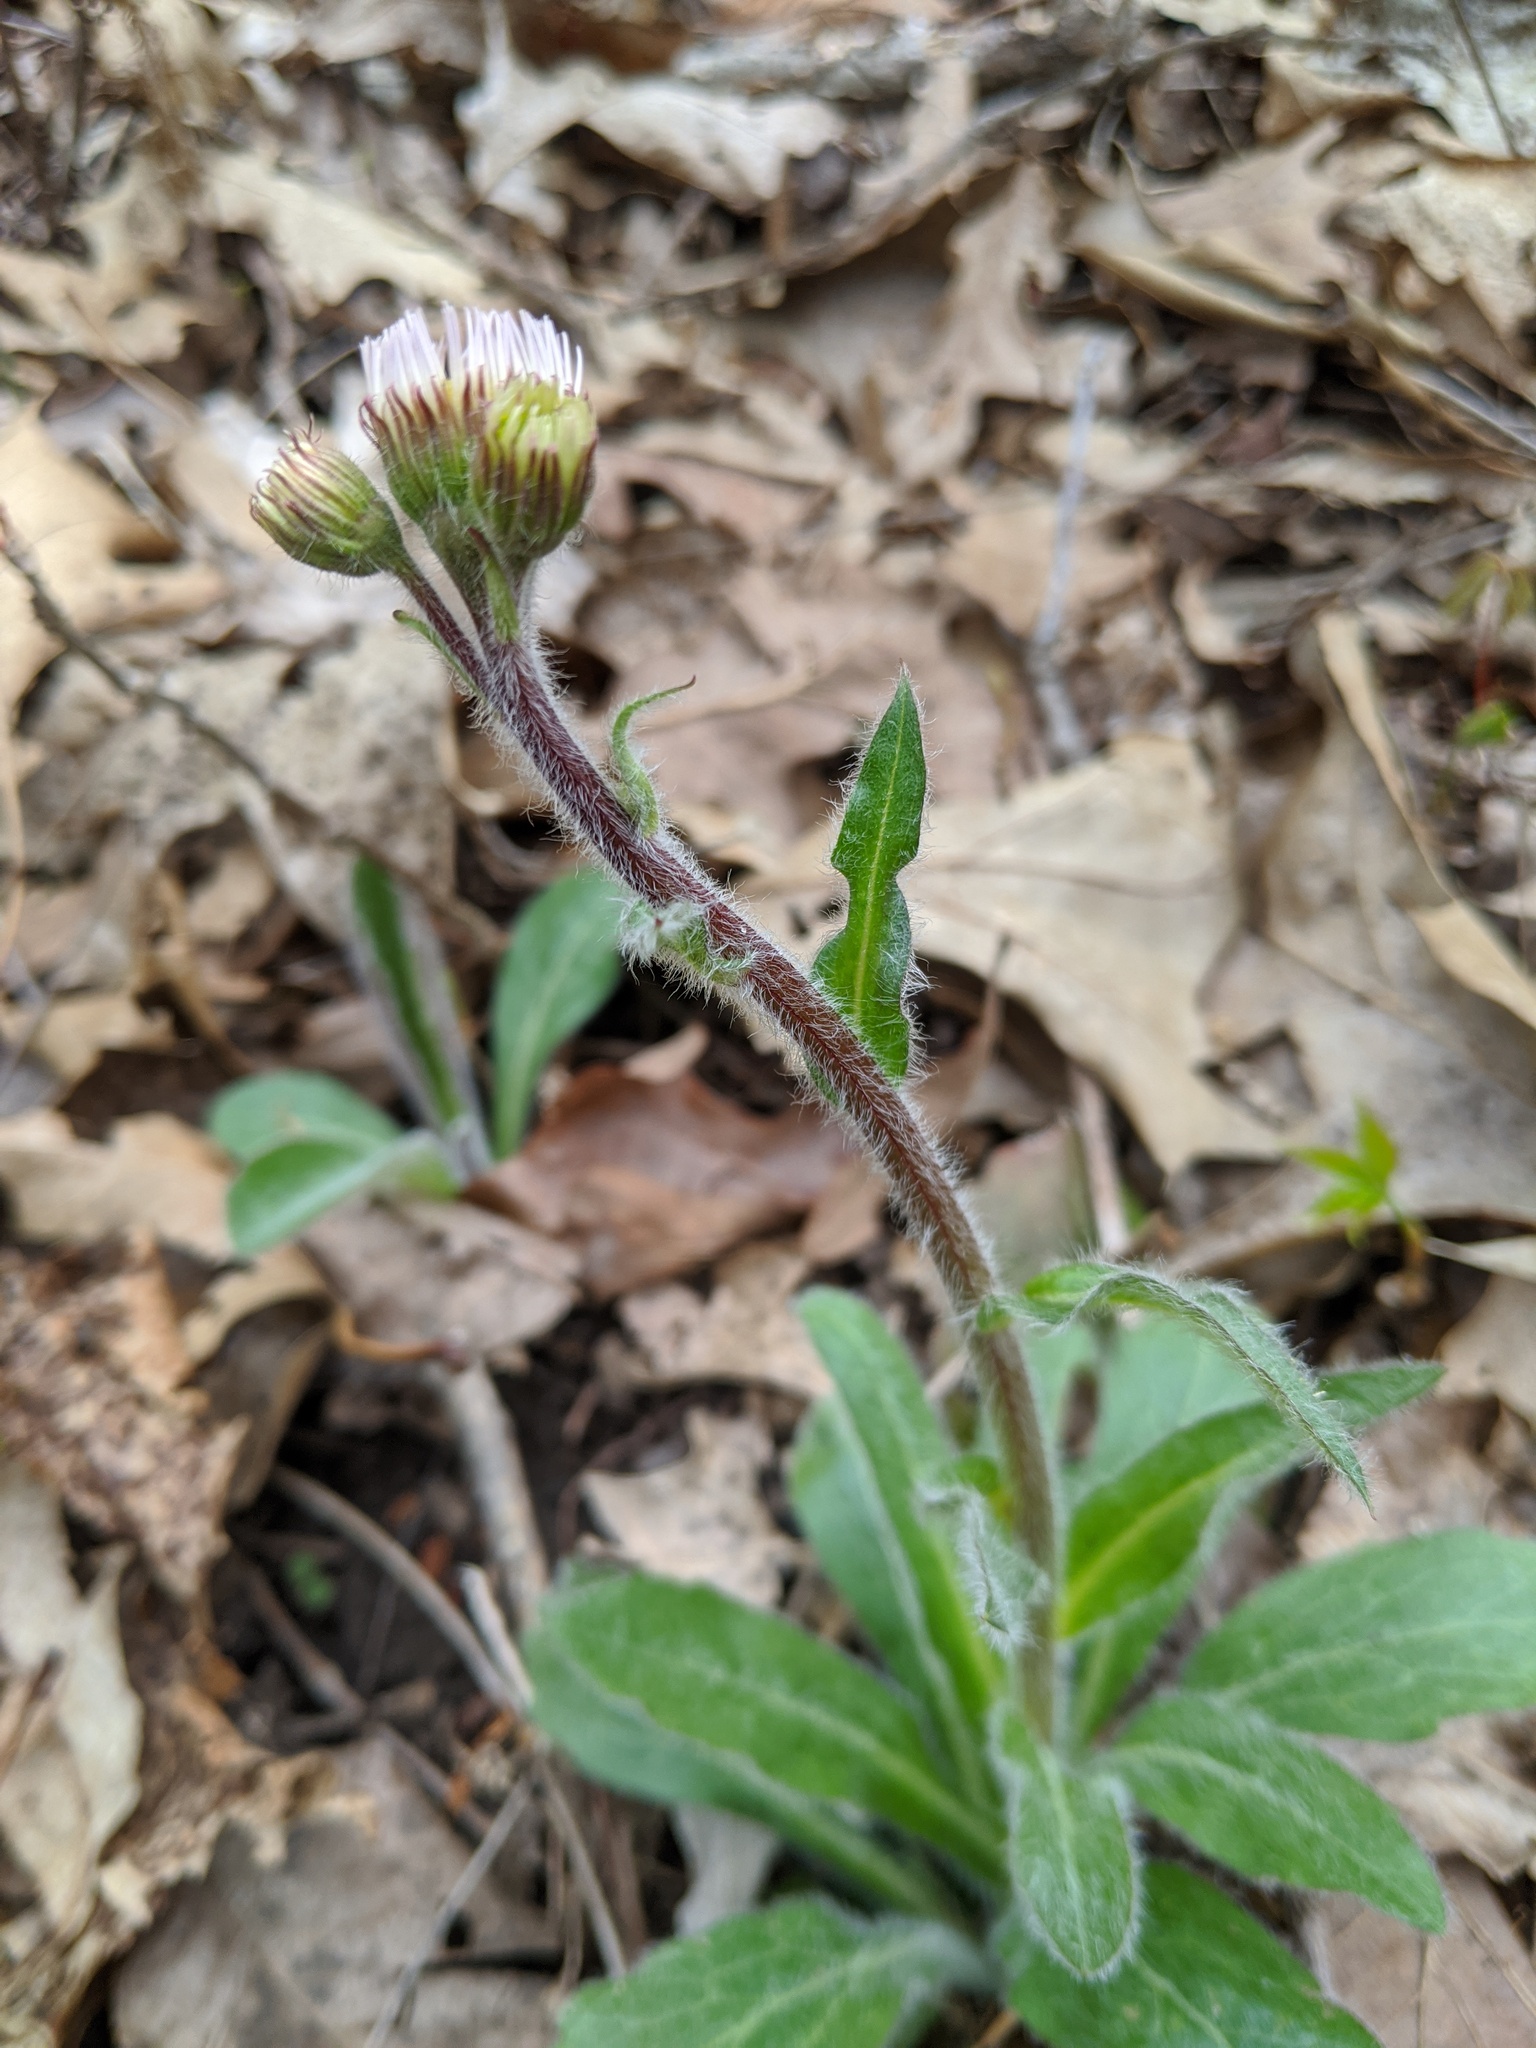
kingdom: Plantae
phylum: Tracheophyta
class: Magnoliopsida
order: Asterales
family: Asteraceae
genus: Erigeron
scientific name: Erigeron pulchellus
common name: Hairy fleabane
